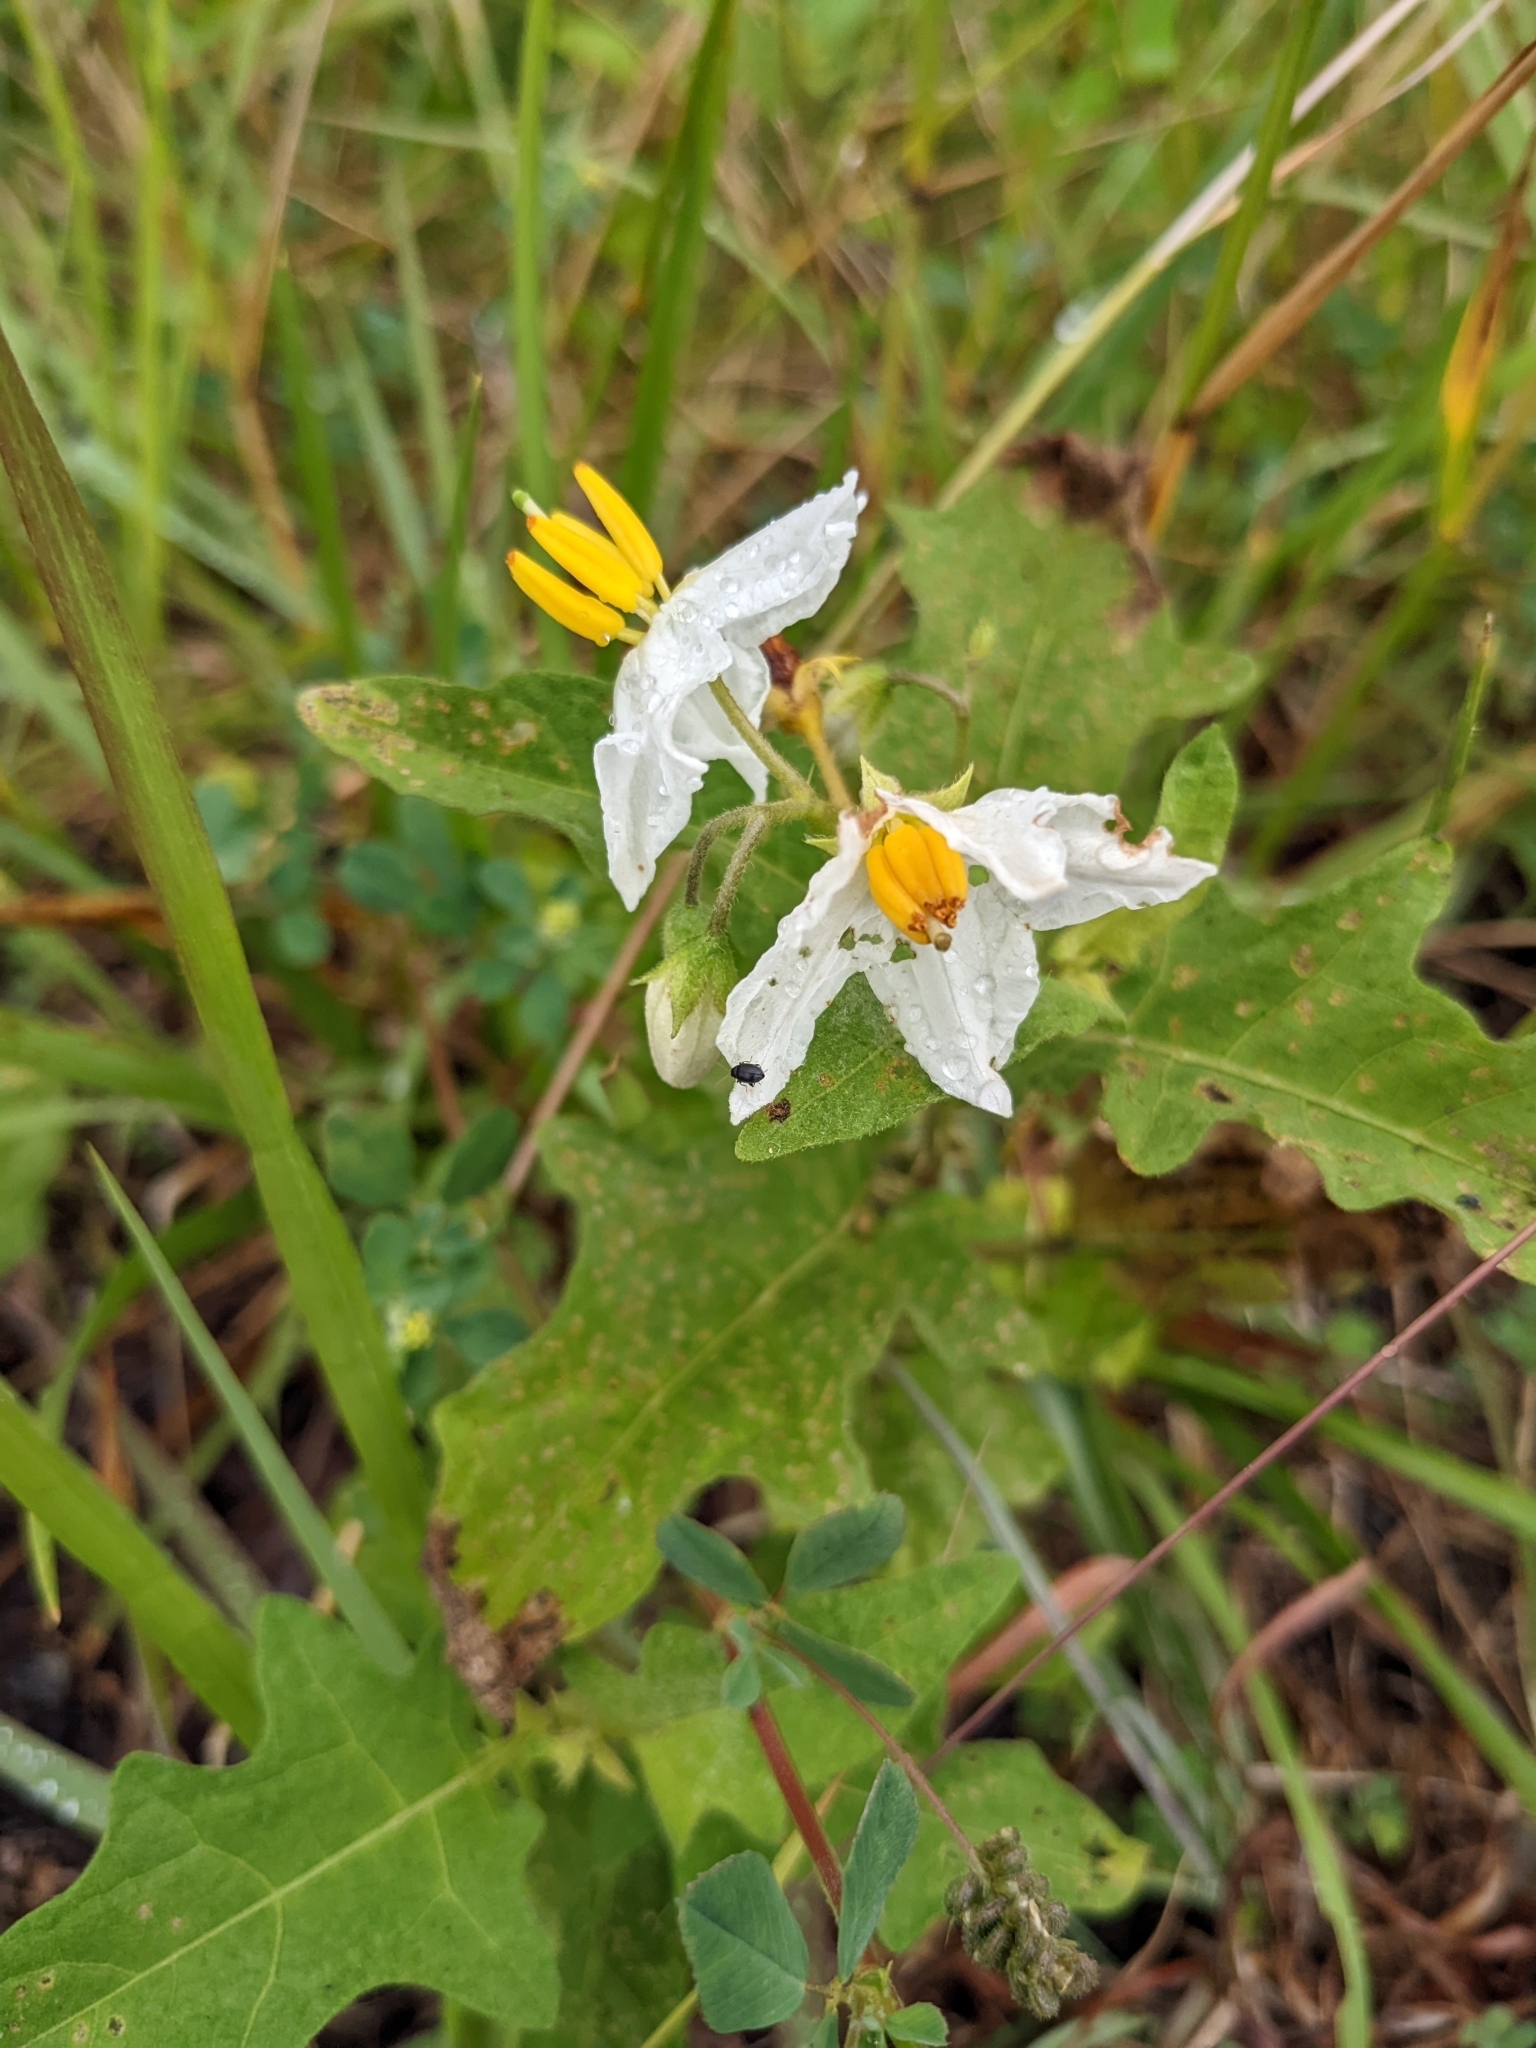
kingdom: Plantae
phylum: Tracheophyta
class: Magnoliopsida
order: Solanales
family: Solanaceae
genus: Solanum
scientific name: Solanum carolinense
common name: Horse-nettle
